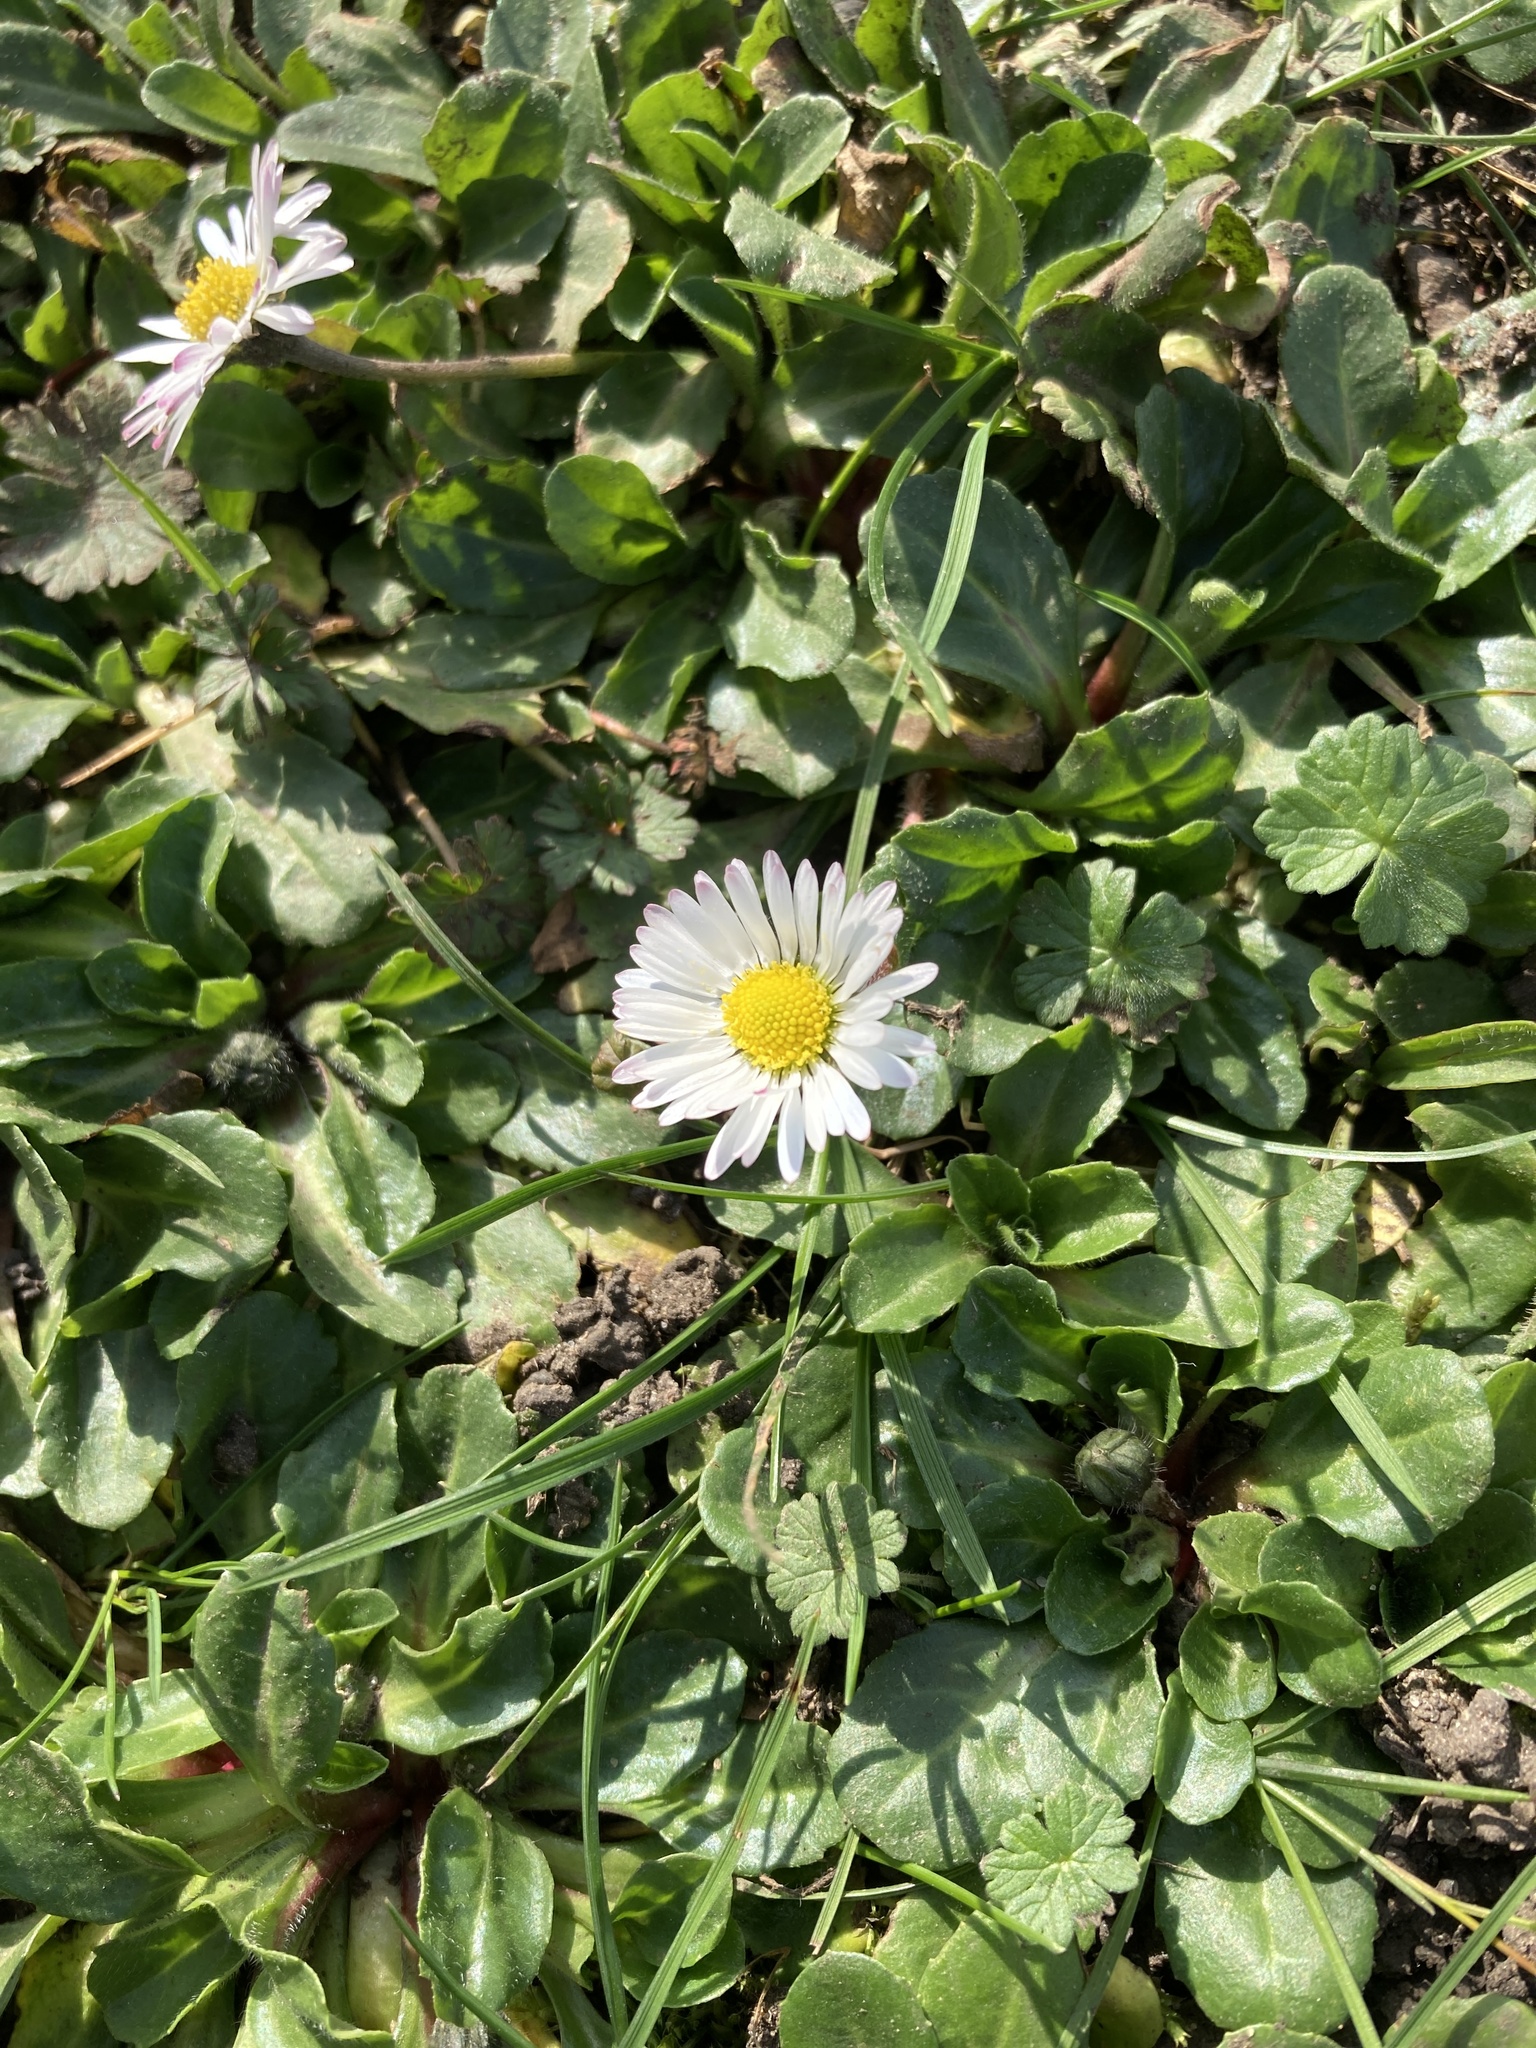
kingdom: Plantae
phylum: Tracheophyta
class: Magnoliopsida
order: Asterales
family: Asteraceae
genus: Bellis
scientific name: Bellis perennis
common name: Lawndaisy
